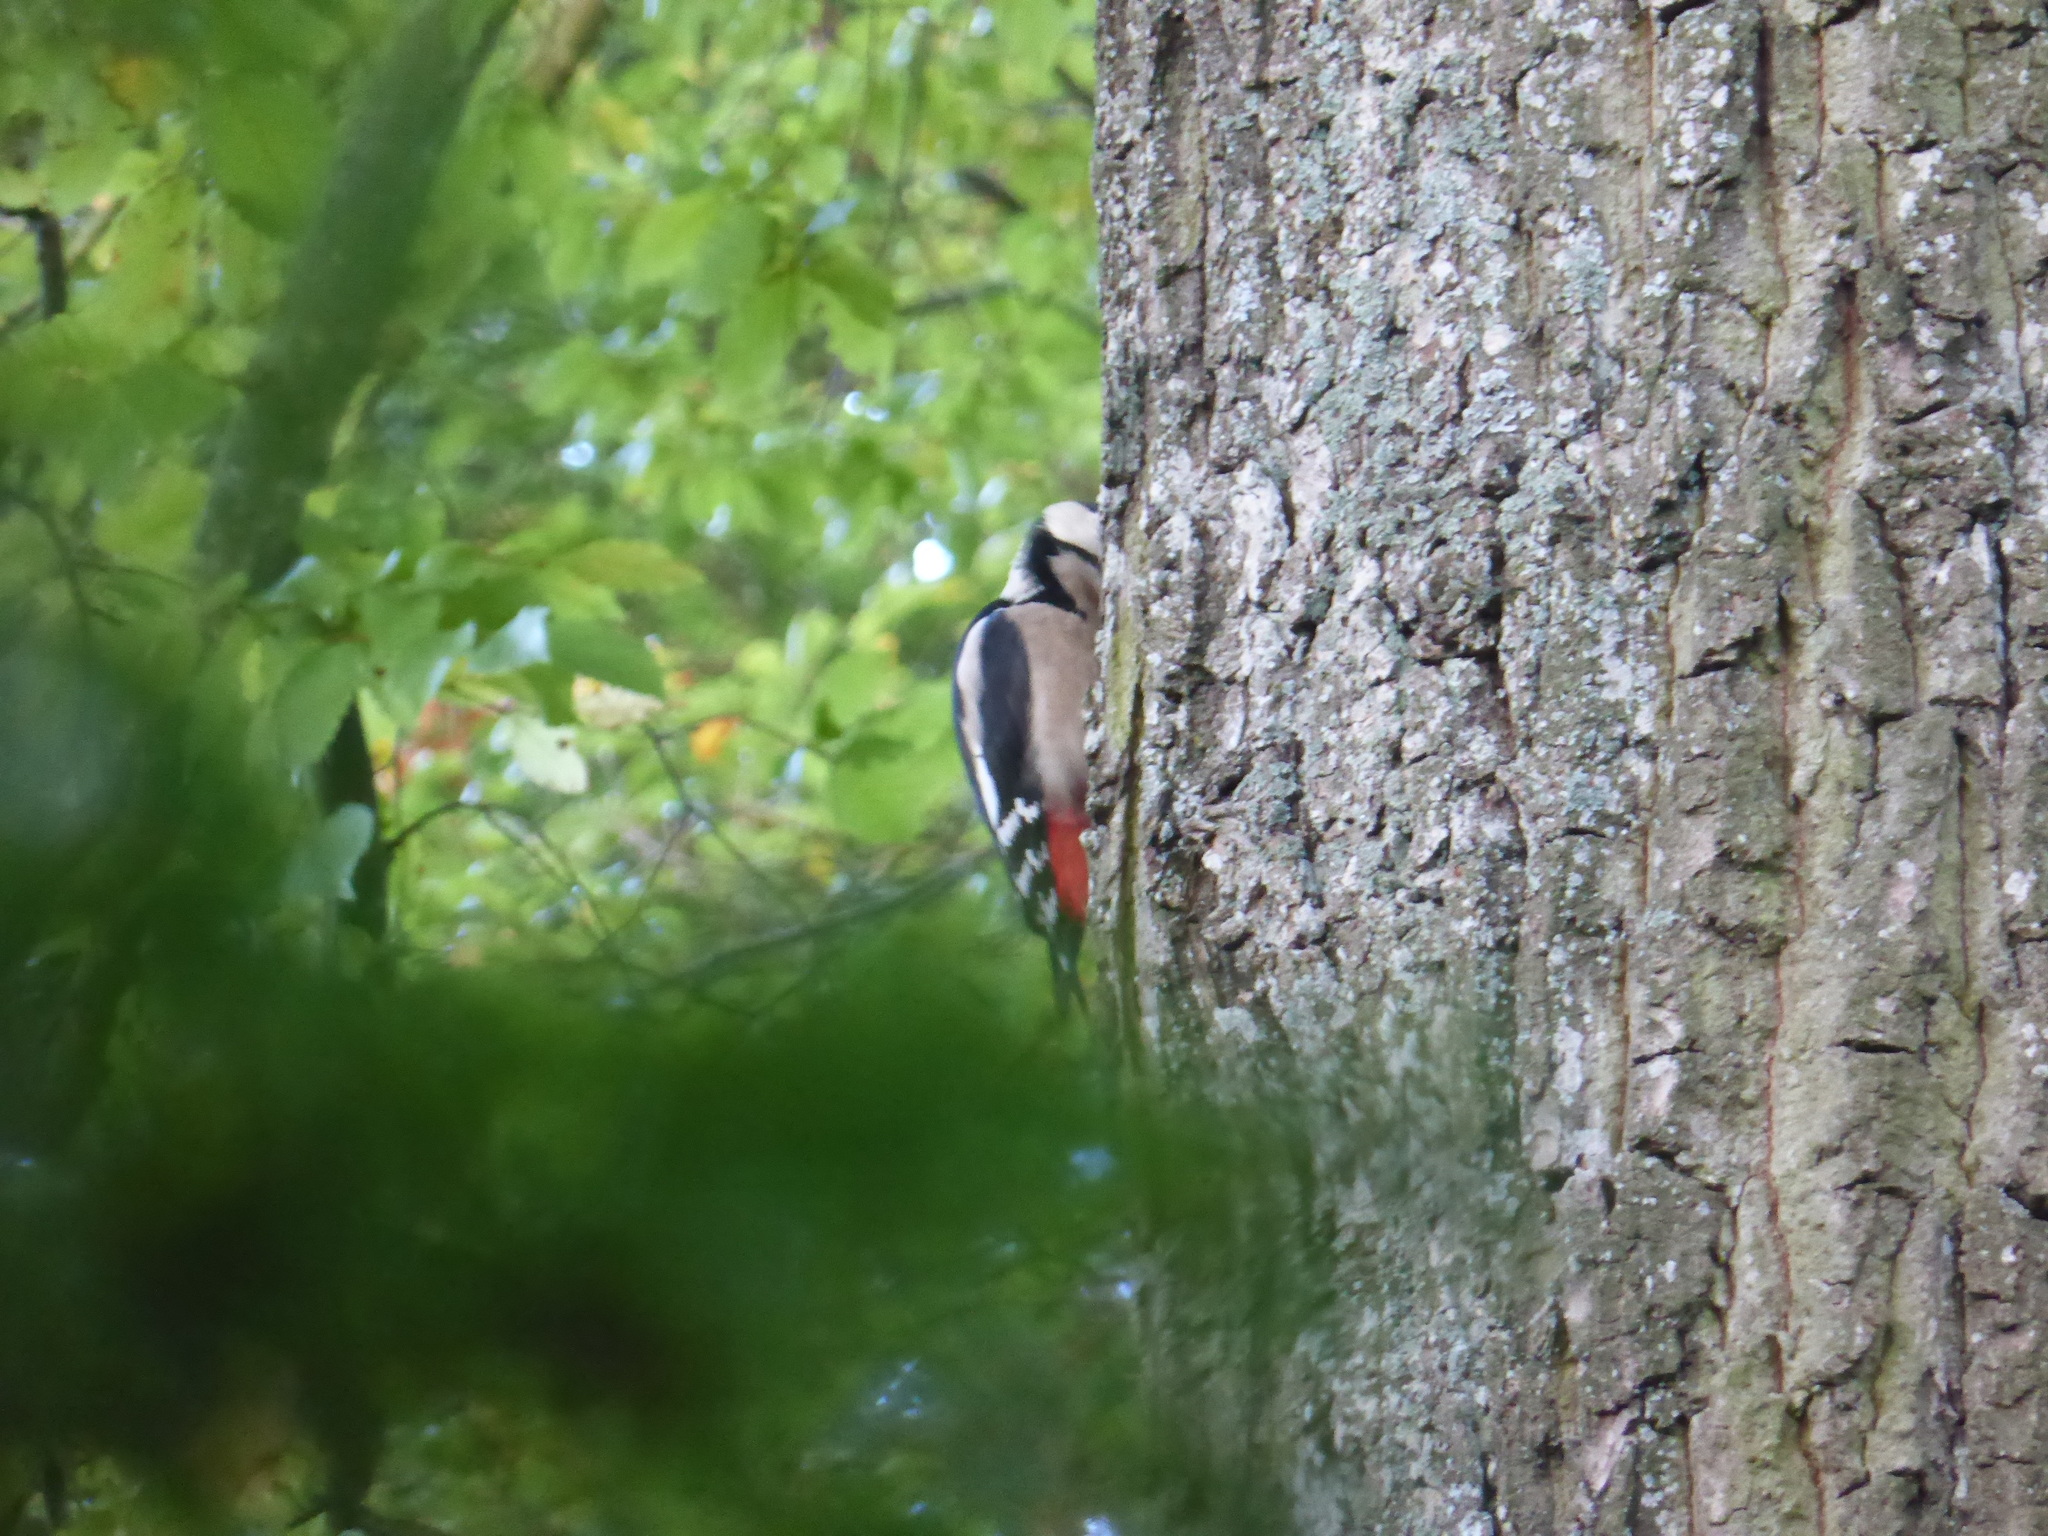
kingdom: Animalia
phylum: Chordata
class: Aves
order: Piciformes
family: Picidae
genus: Dendrocopos
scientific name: Dendrocopos major
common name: Great spotted woodpecker
